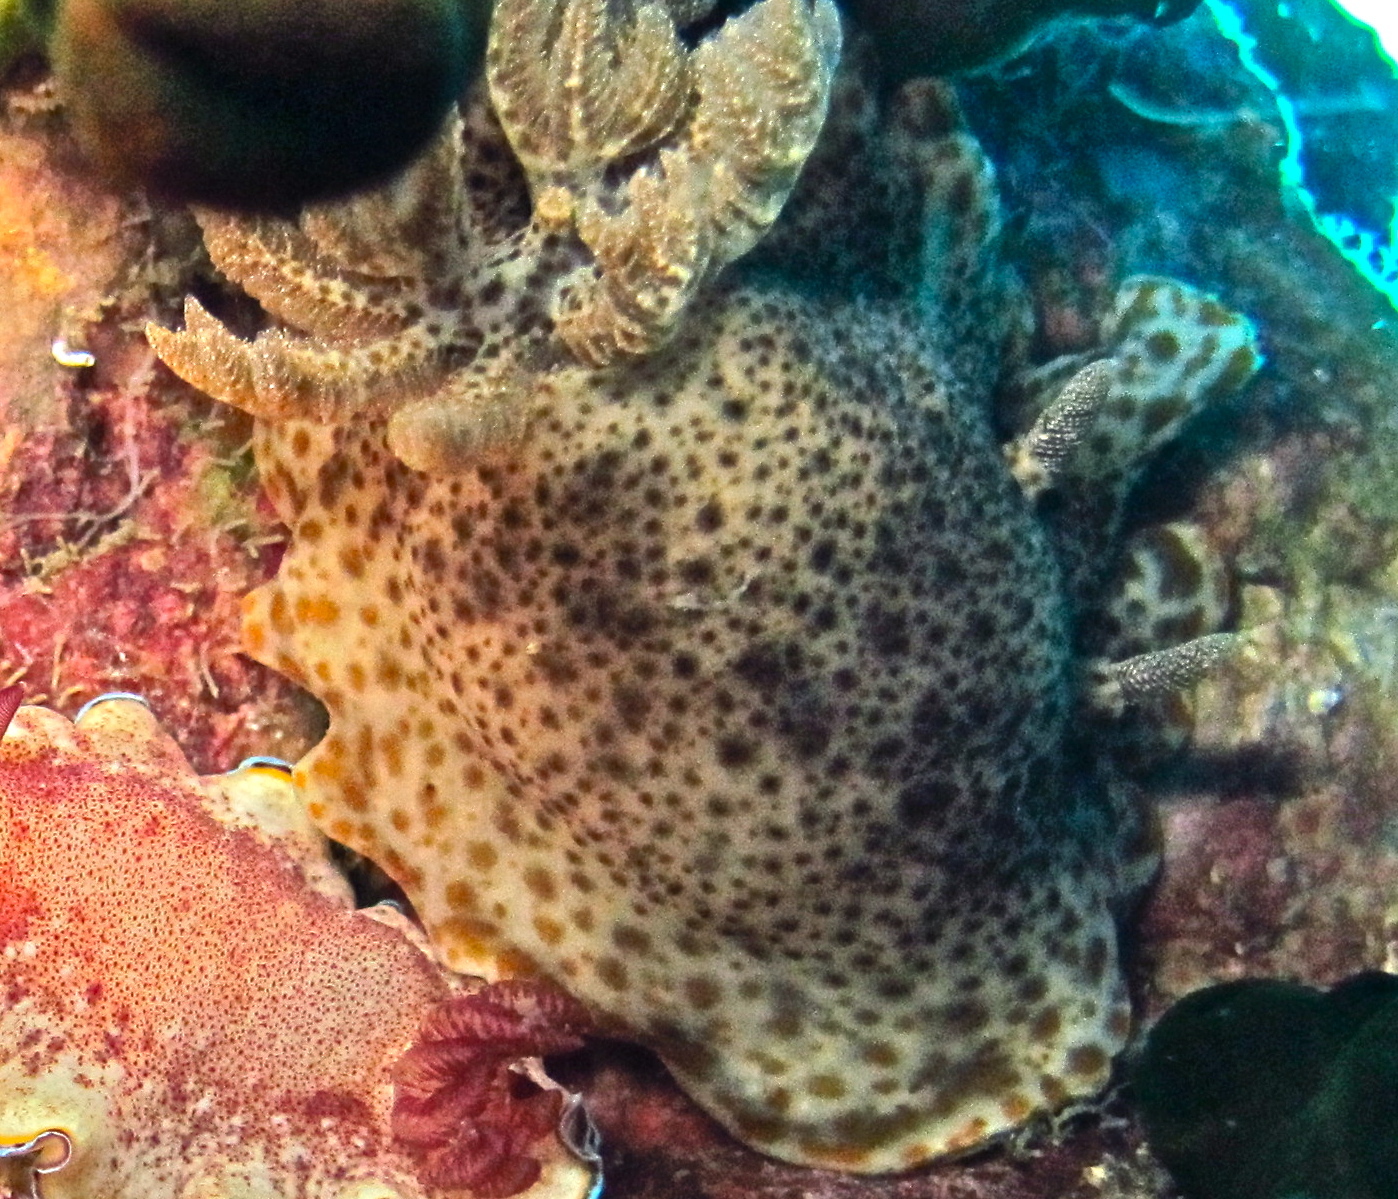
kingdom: Animalia
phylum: Mollusca
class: Gastropoda
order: Nudibranchia
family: Chromodorididae
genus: Chromodoris
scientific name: Chromodoris mandapamensis
